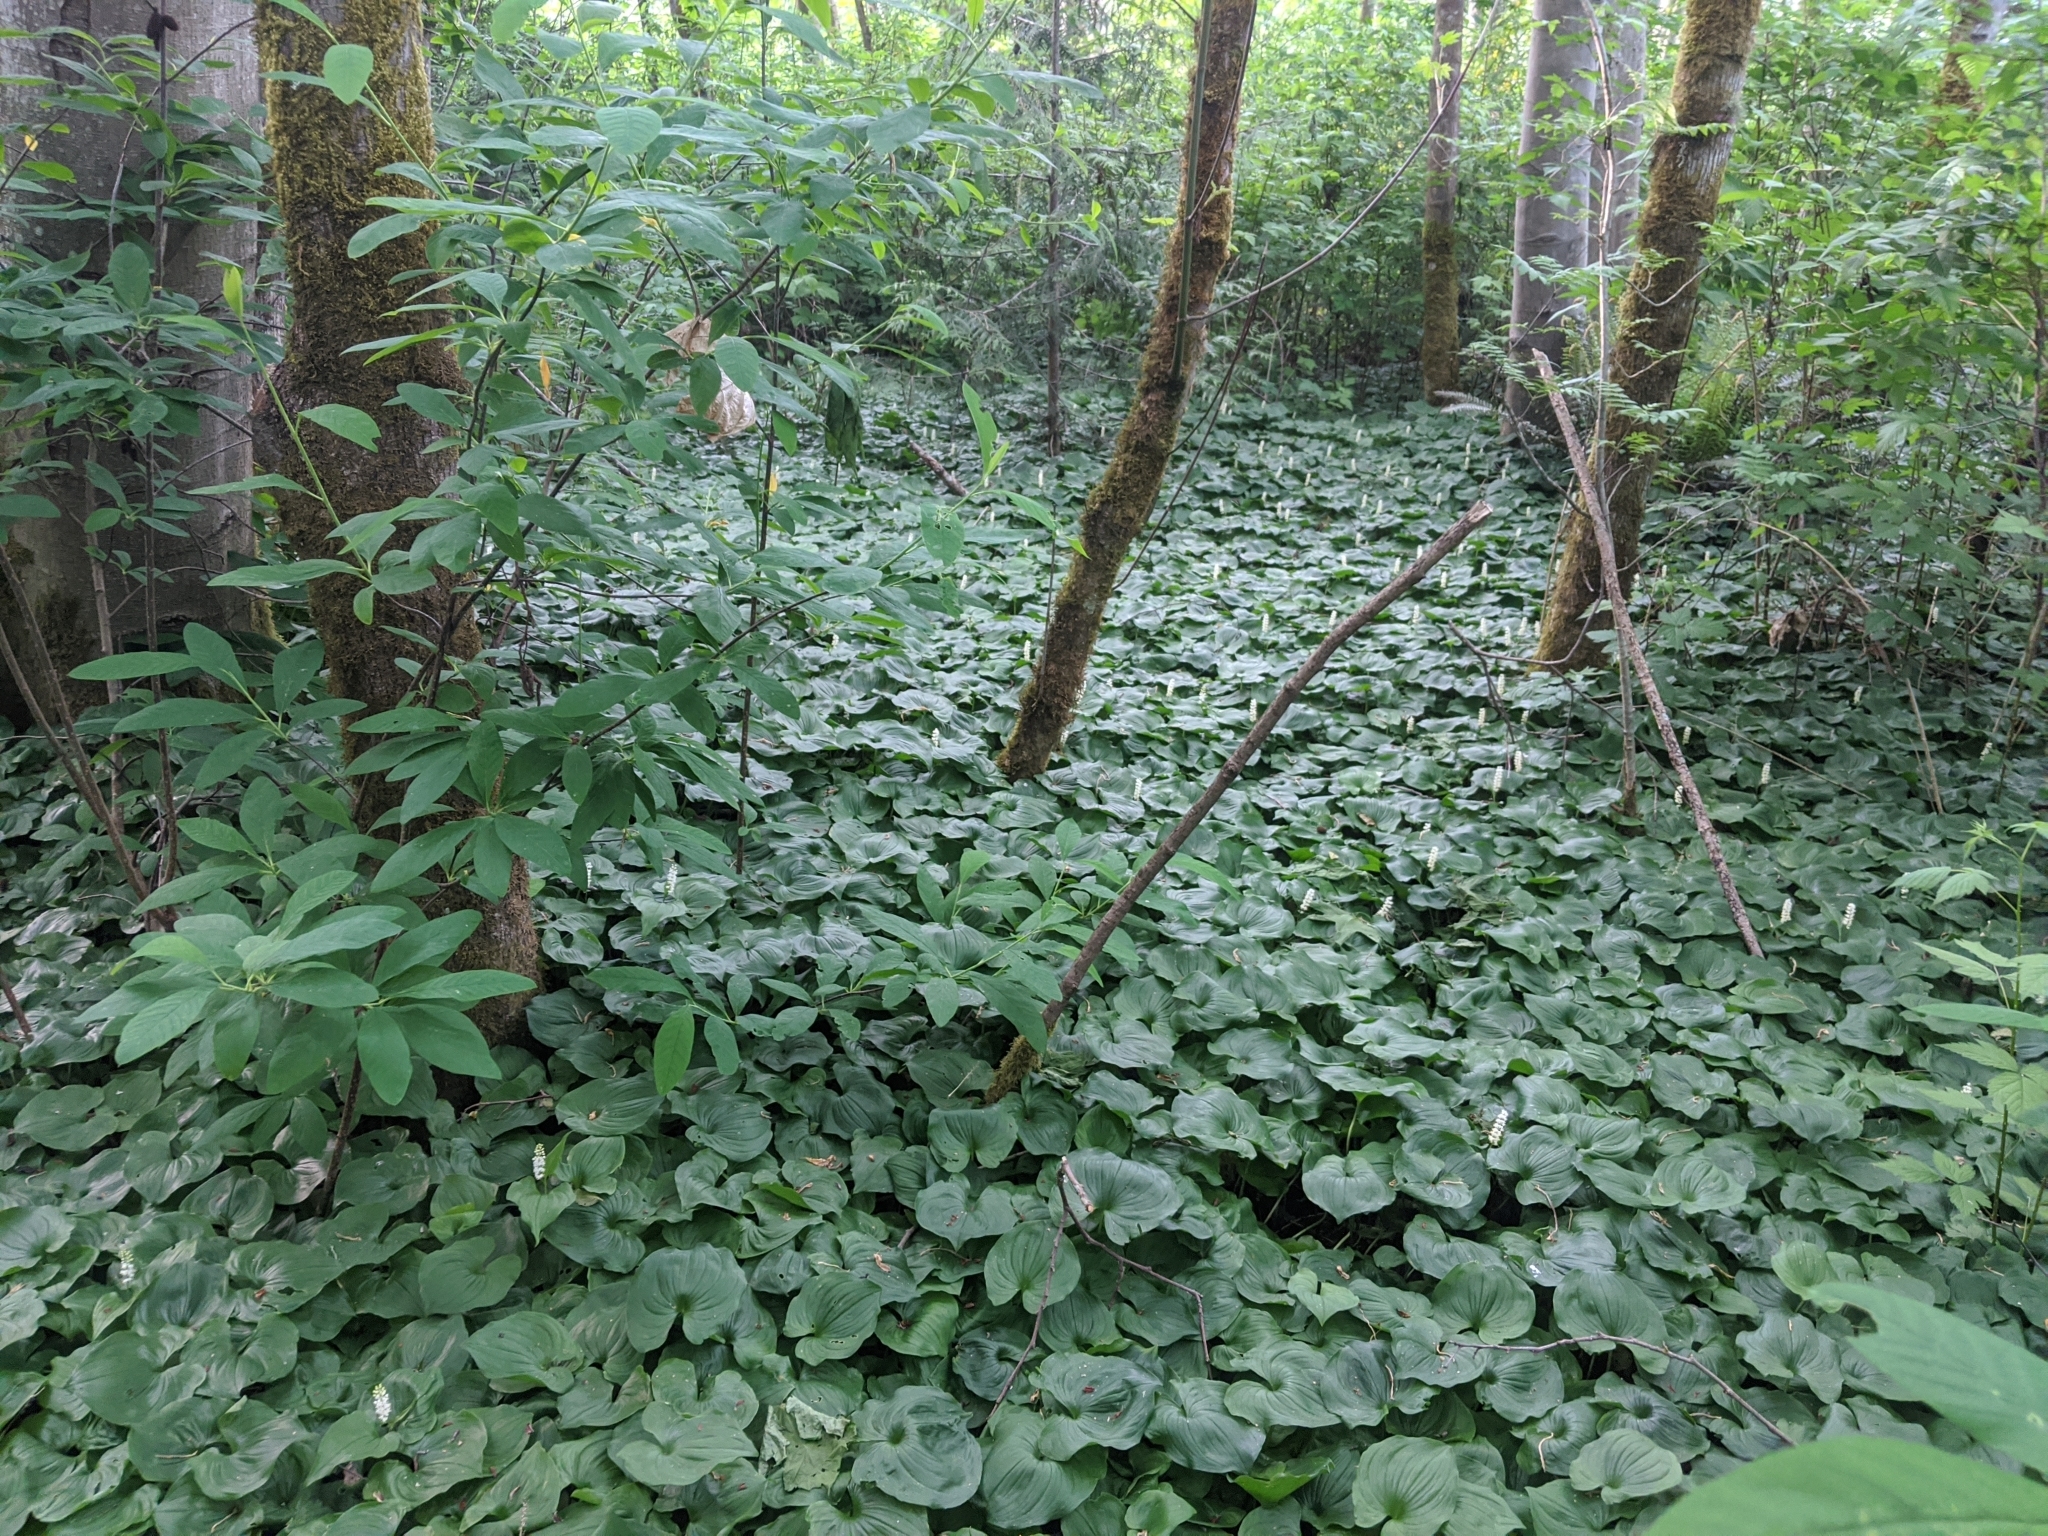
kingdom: Plantae
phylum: Tracheophyta
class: Liliopsida
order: Asparagales
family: Asparagaceae
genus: Maianthemum
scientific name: Maianthemum dilatatum
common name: False lily-of-the-valley
